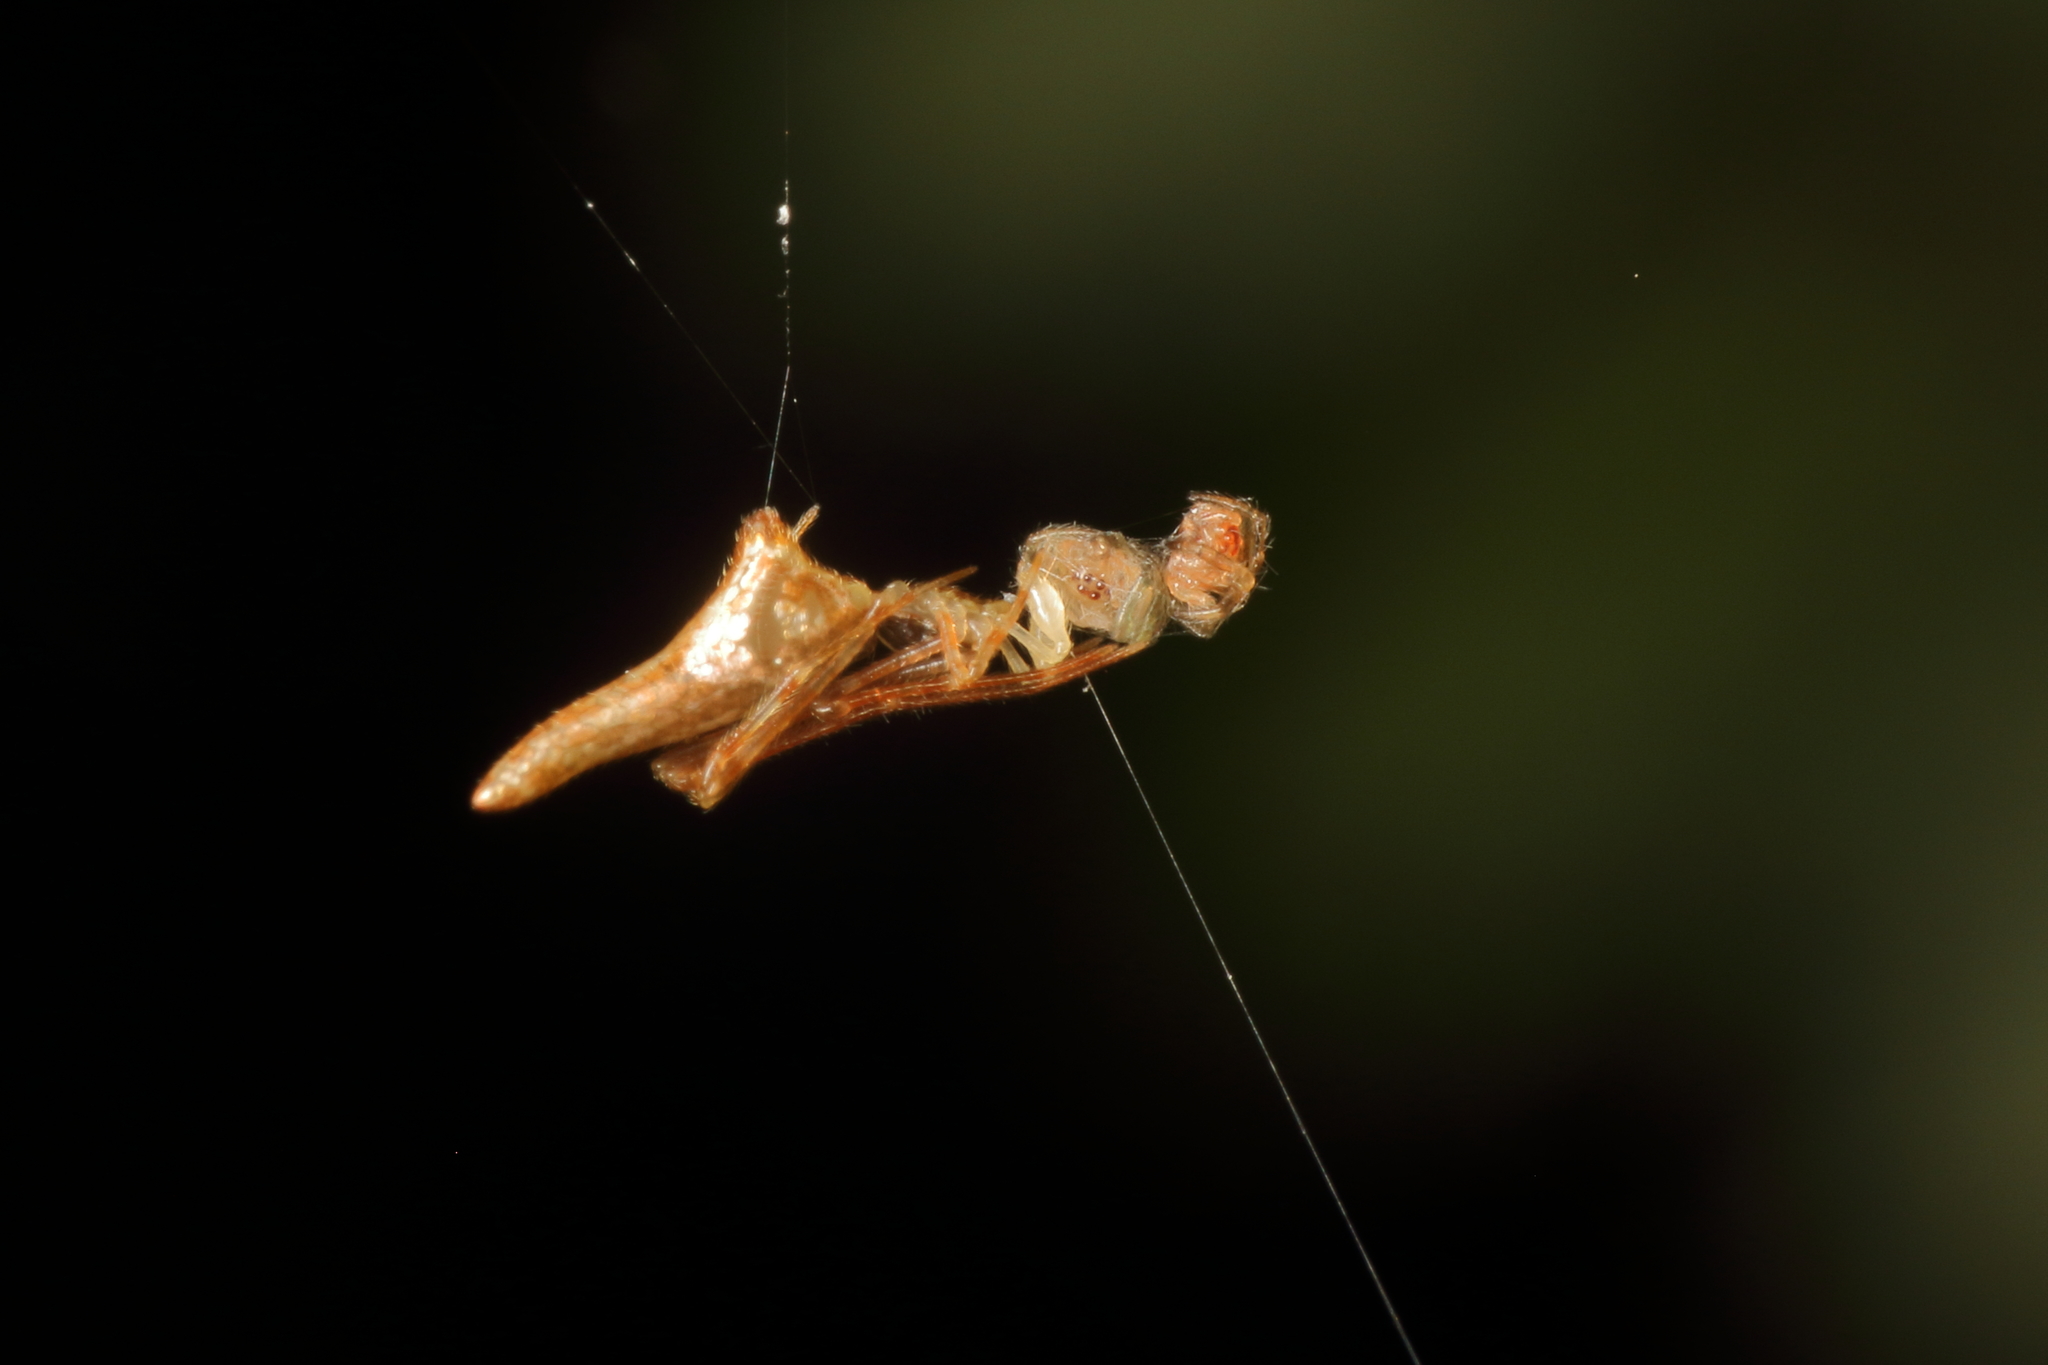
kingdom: Animalia
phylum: Arthropoda
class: Arachnida
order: Araneae
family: Theridiidae
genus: Rhomphaea
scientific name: Rhomphaea urquharti
